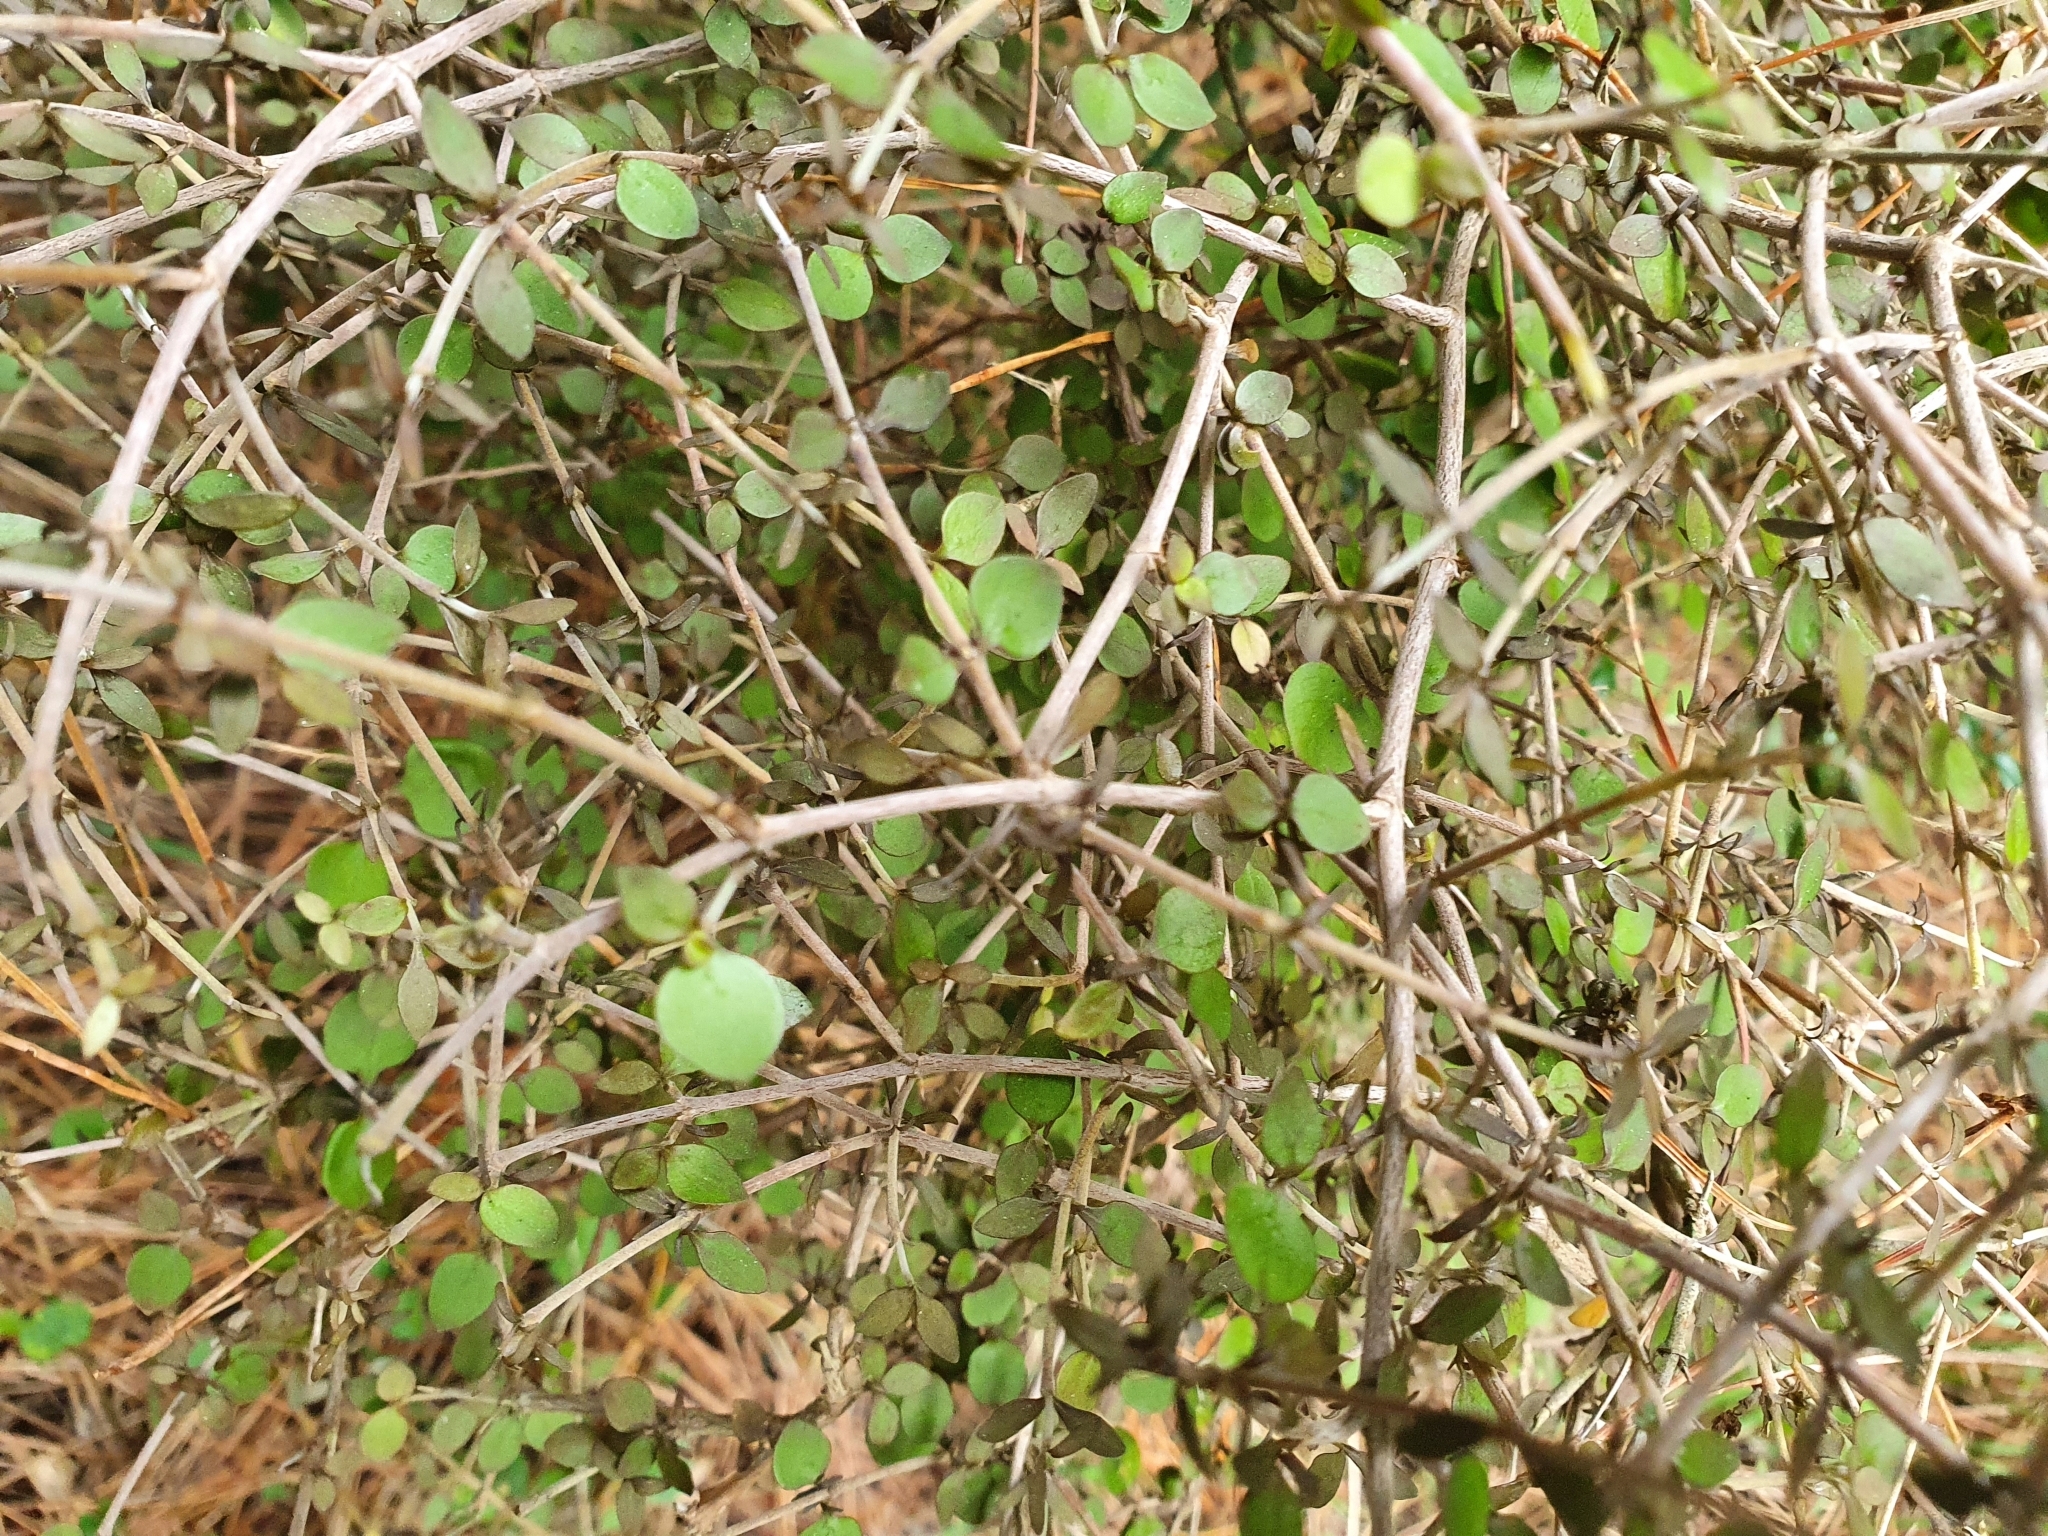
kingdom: Plantae
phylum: Tracheophyta
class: Magnoliopsida
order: Gentianales
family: Rubiaceae
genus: Coprosma
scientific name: Coprosma rhamnoides
